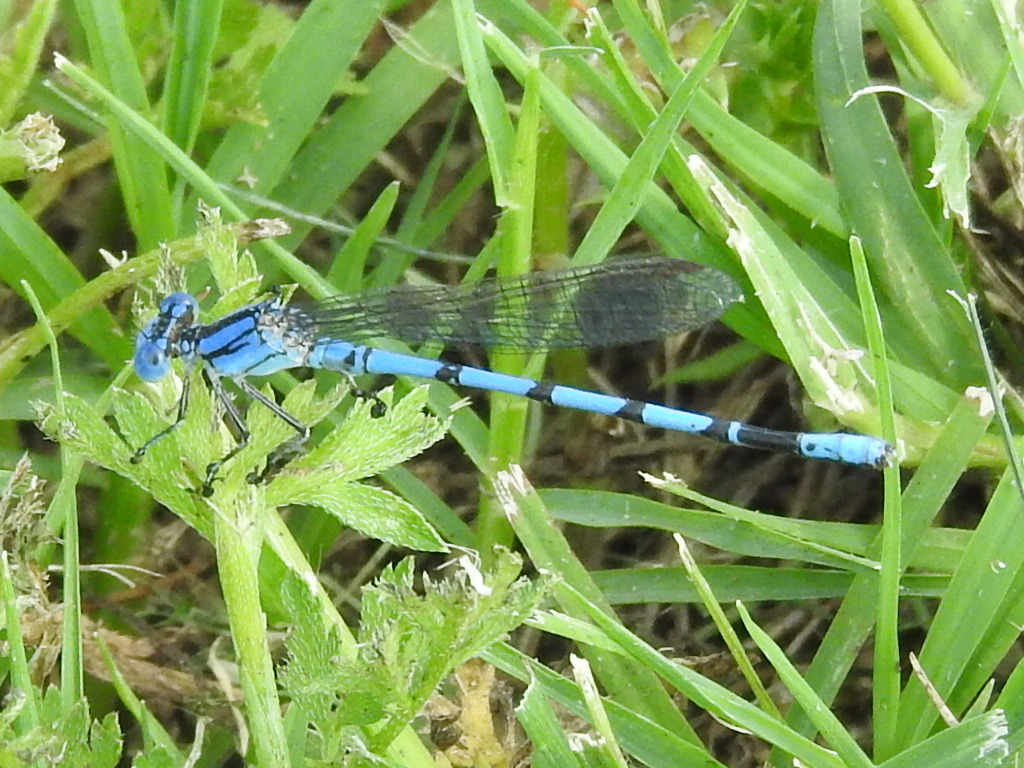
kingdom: Animalia
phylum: Arthropoda
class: Insecta
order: Odonata
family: Coenagrionidae
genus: Argia
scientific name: Argia nahuana
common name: Aztec dancer
